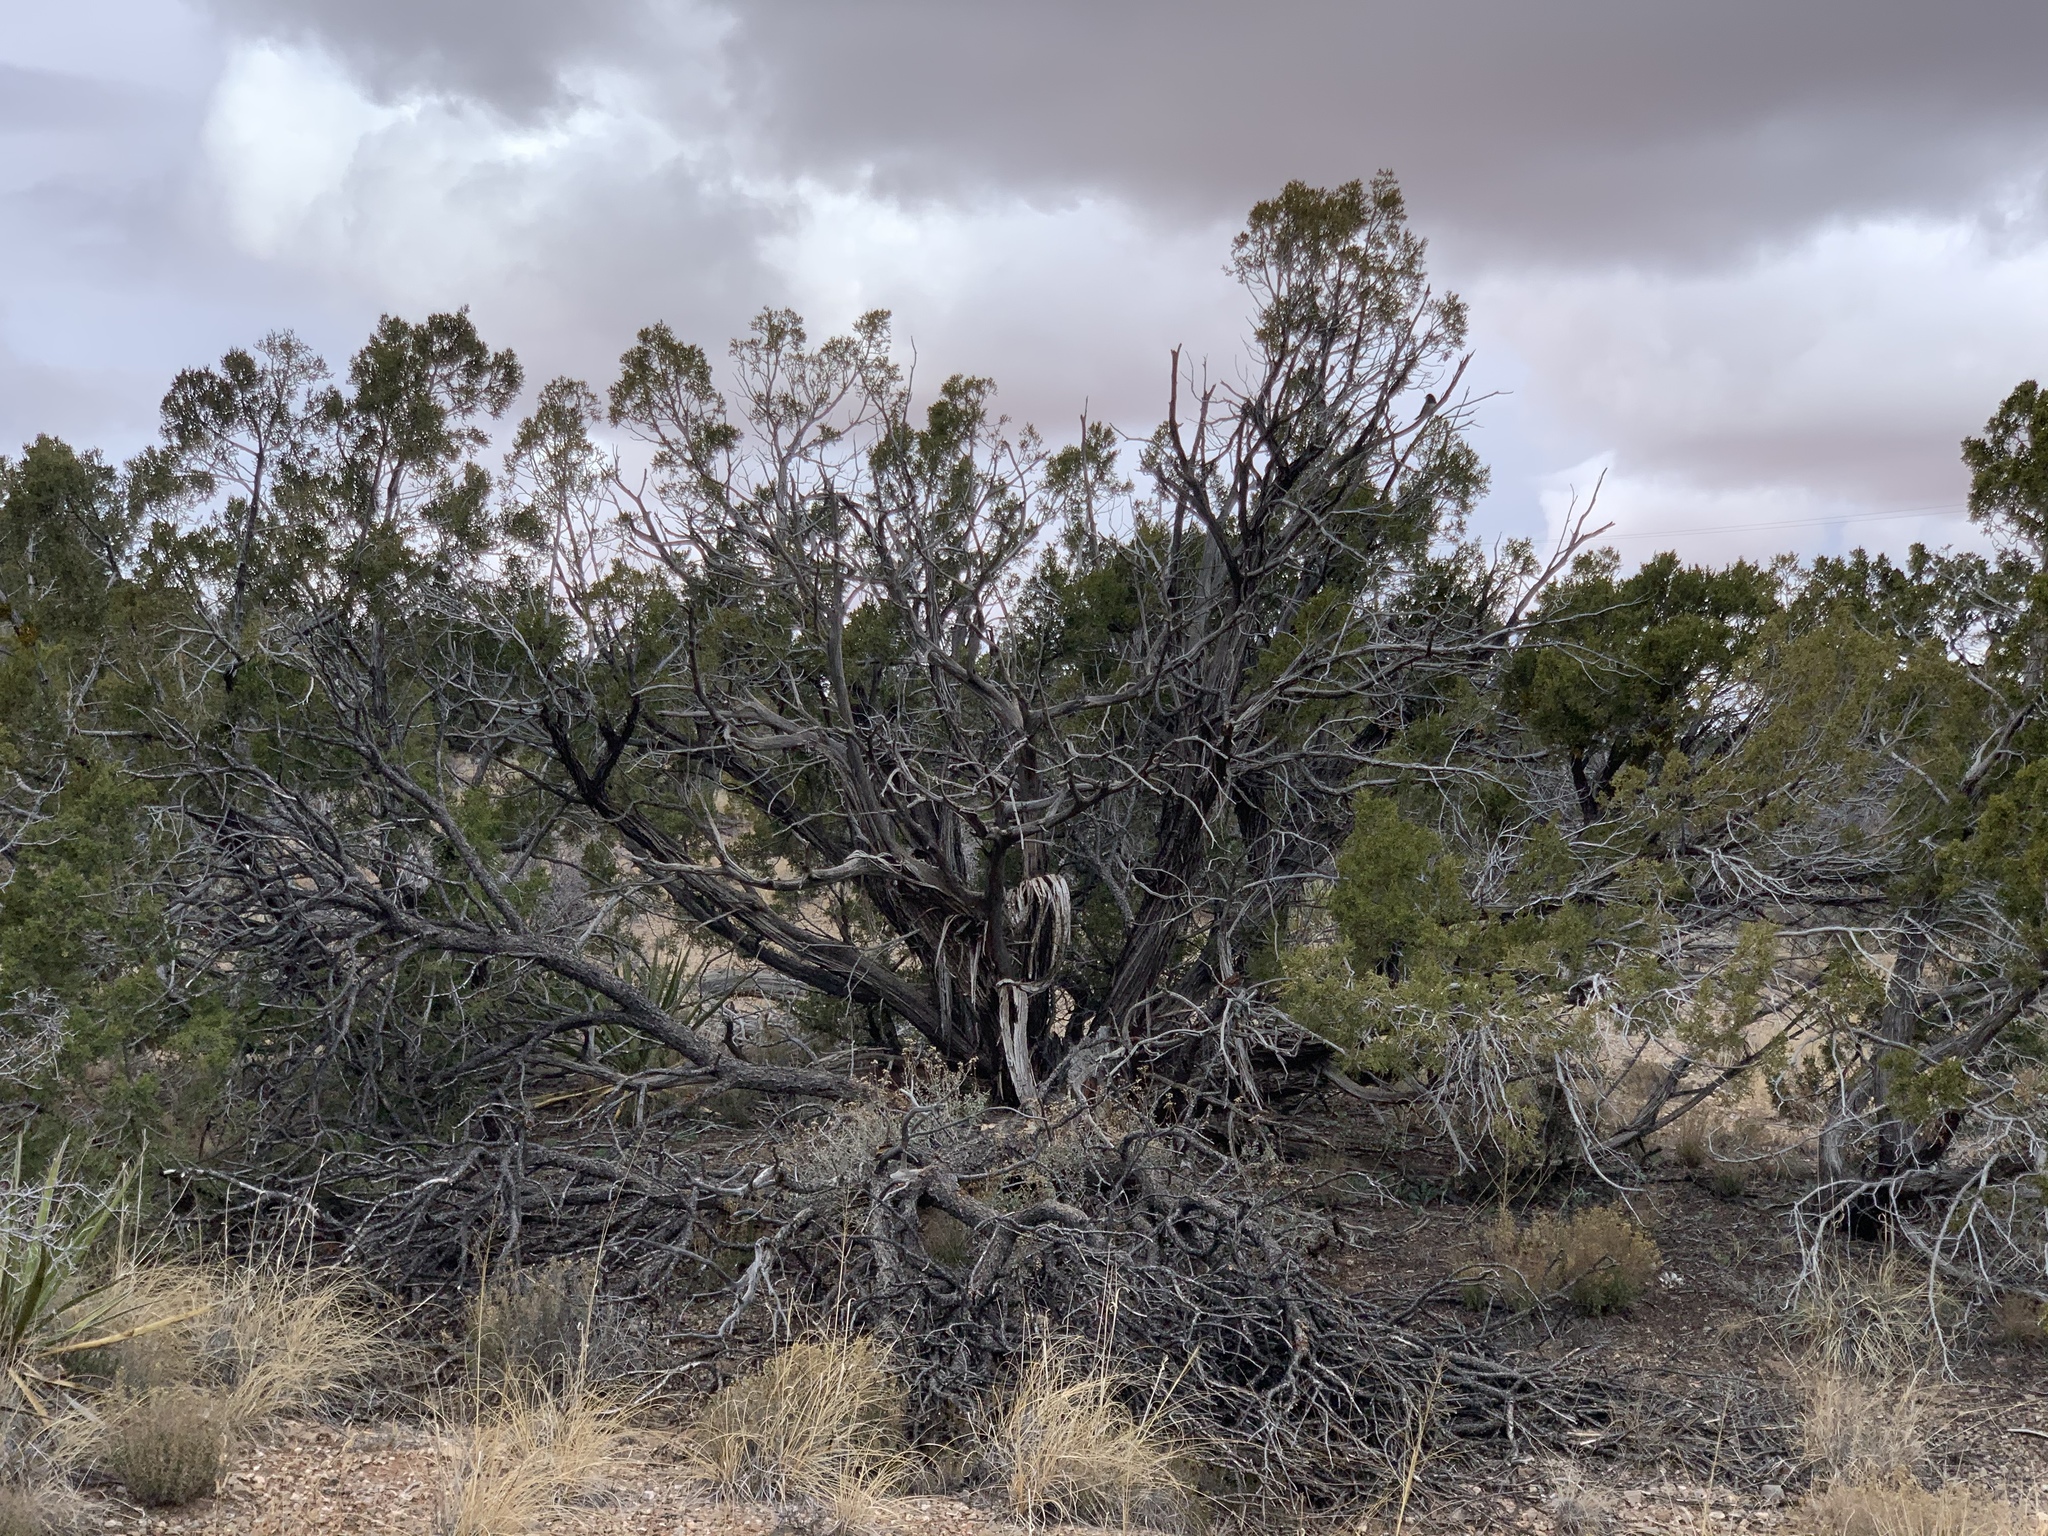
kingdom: Plantae
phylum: Tracheophyta
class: Pinopsida
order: Pinales
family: Cupressaceae
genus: Juniperus
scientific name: Juniperus monosperma
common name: One-seed juniper
